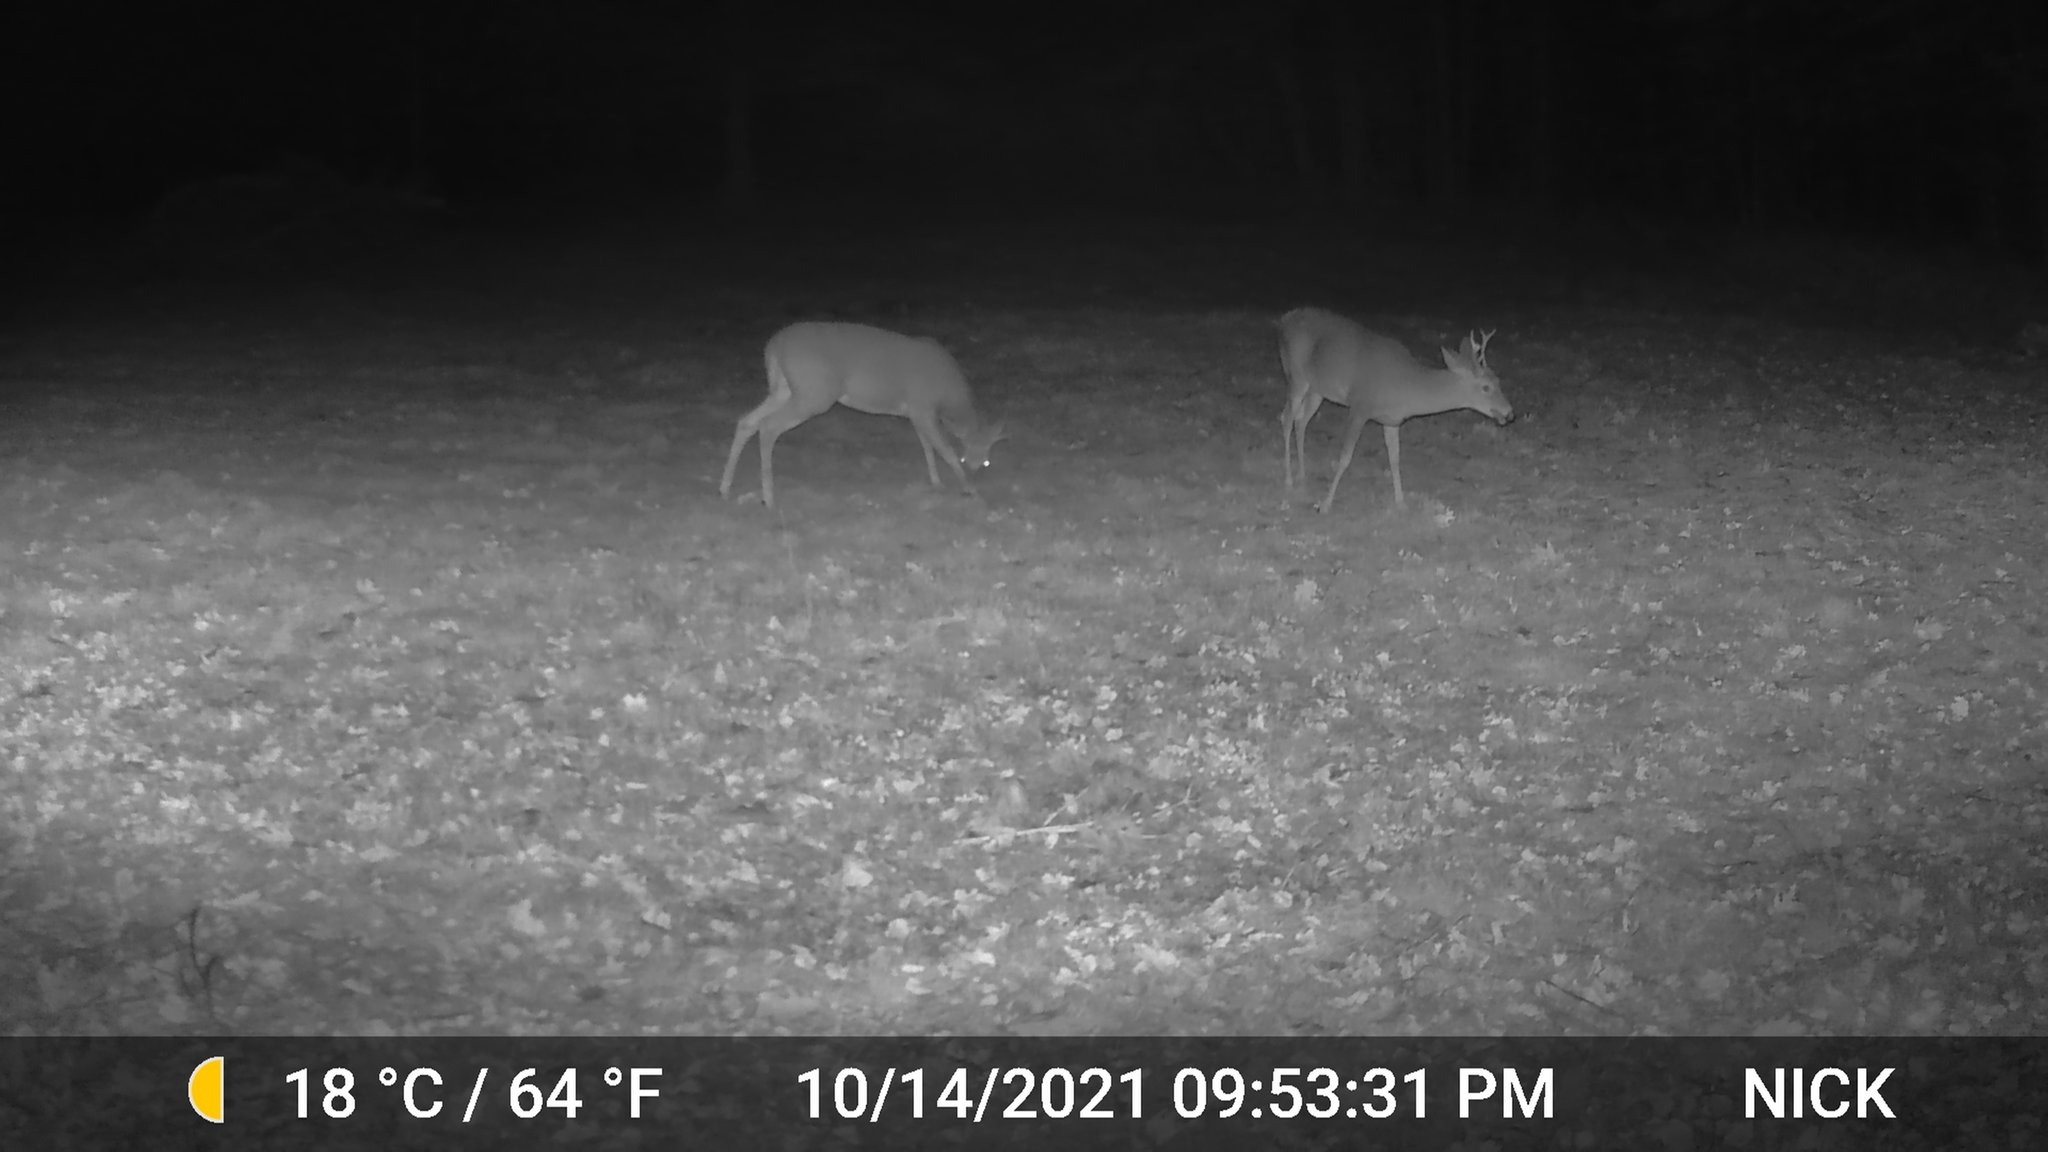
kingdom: Animalia
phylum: Chordata
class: Mammalia
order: Artiodactyla
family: Cervidae
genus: Odocoileus
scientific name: Odocoileus virginianus
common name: White-tailed deer
